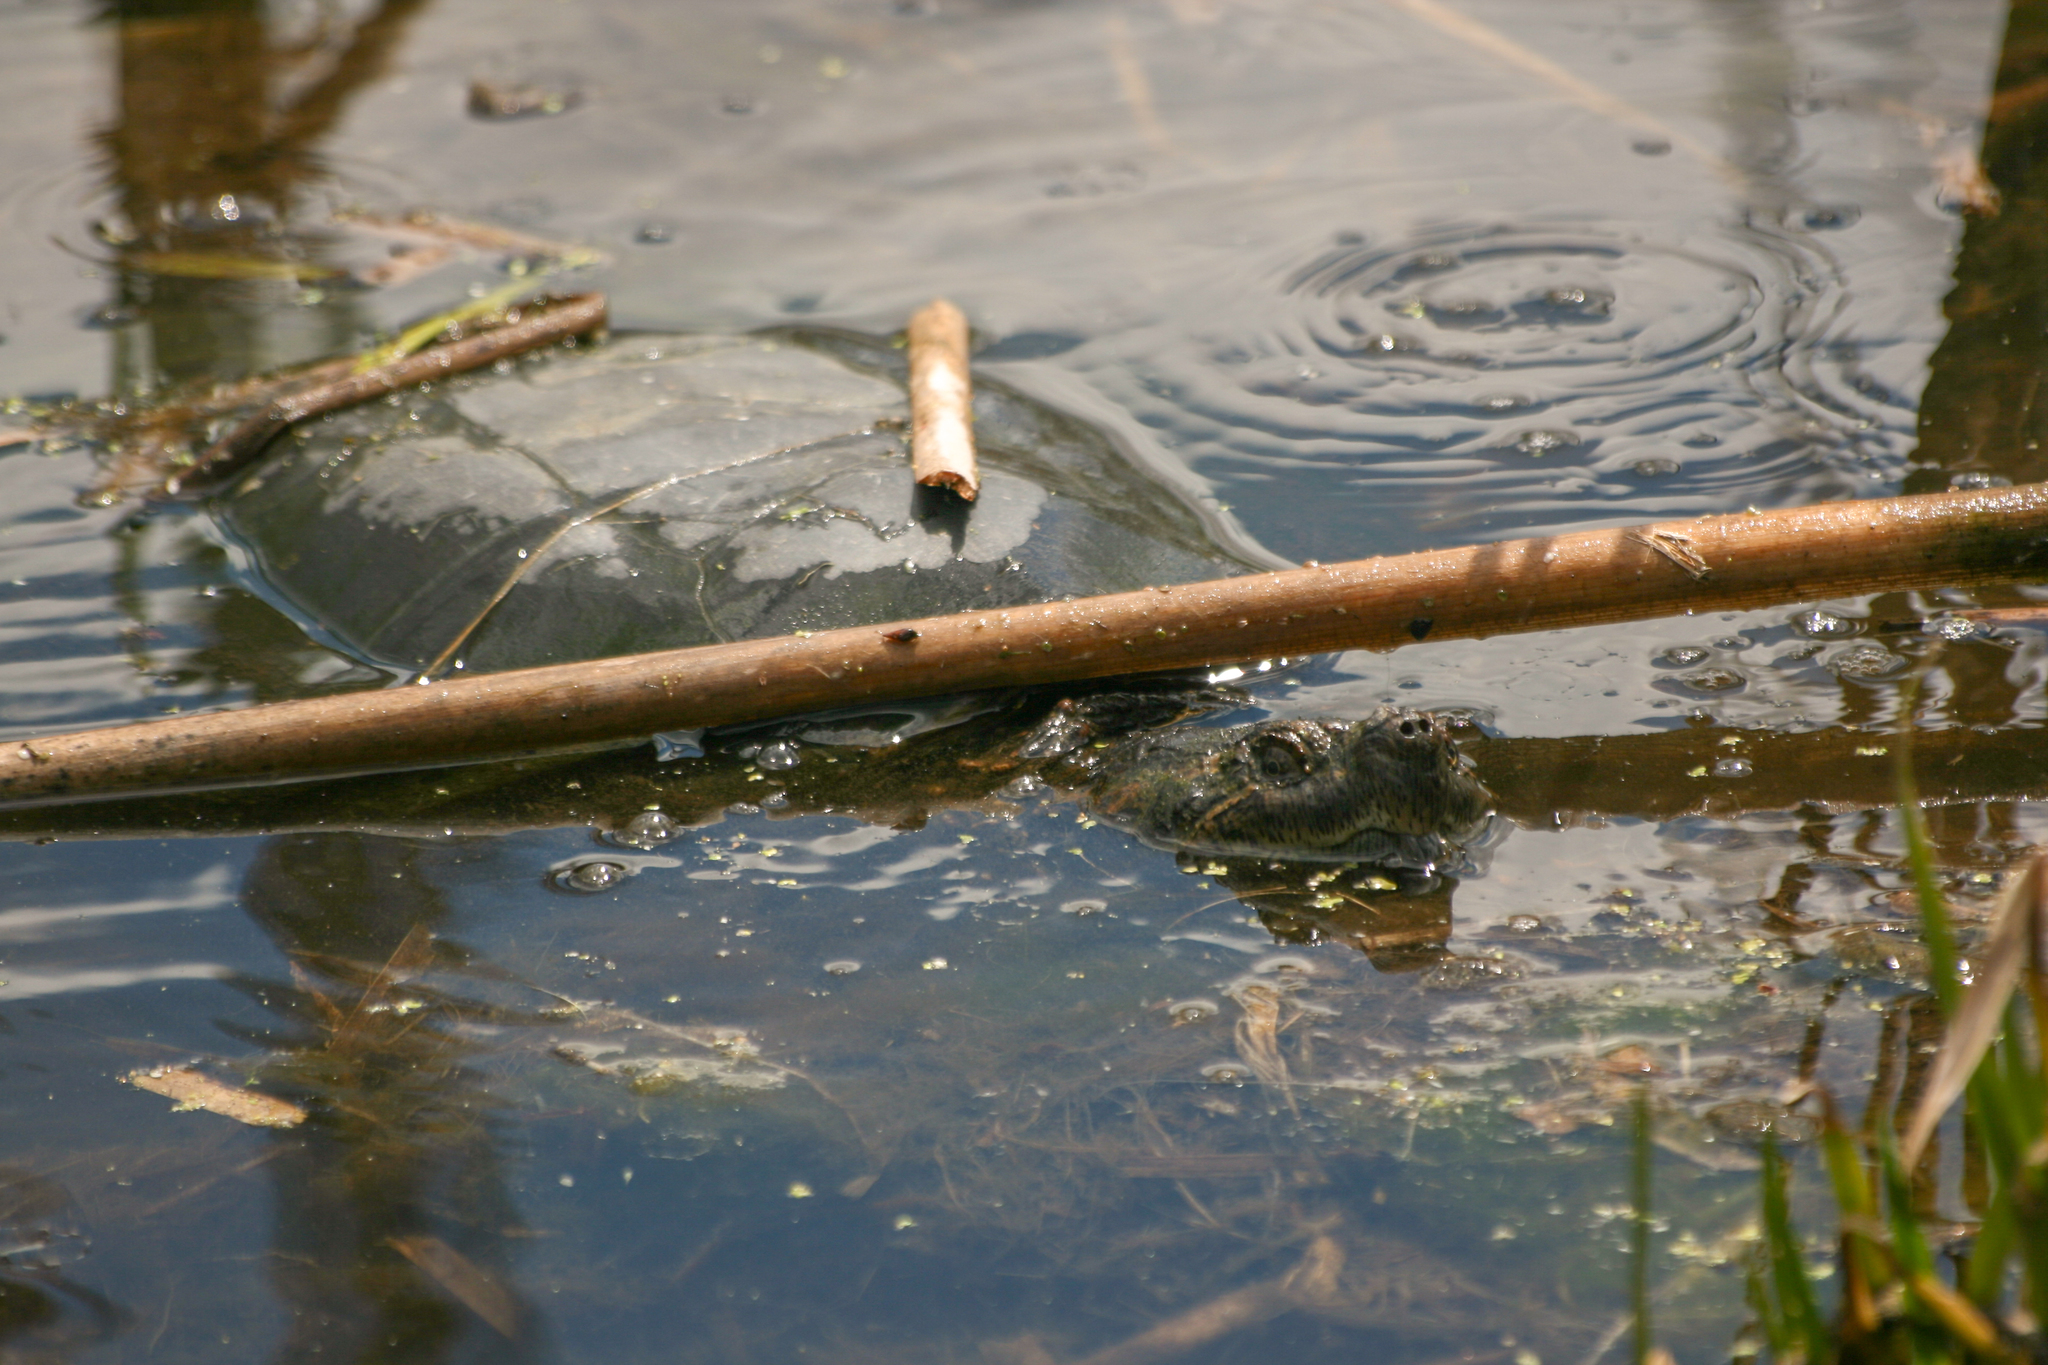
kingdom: Animalia
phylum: Chordata
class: Testudines
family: Chelydridae
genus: Chelydra
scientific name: Chelydra serpentina
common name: Common snapping turtle
